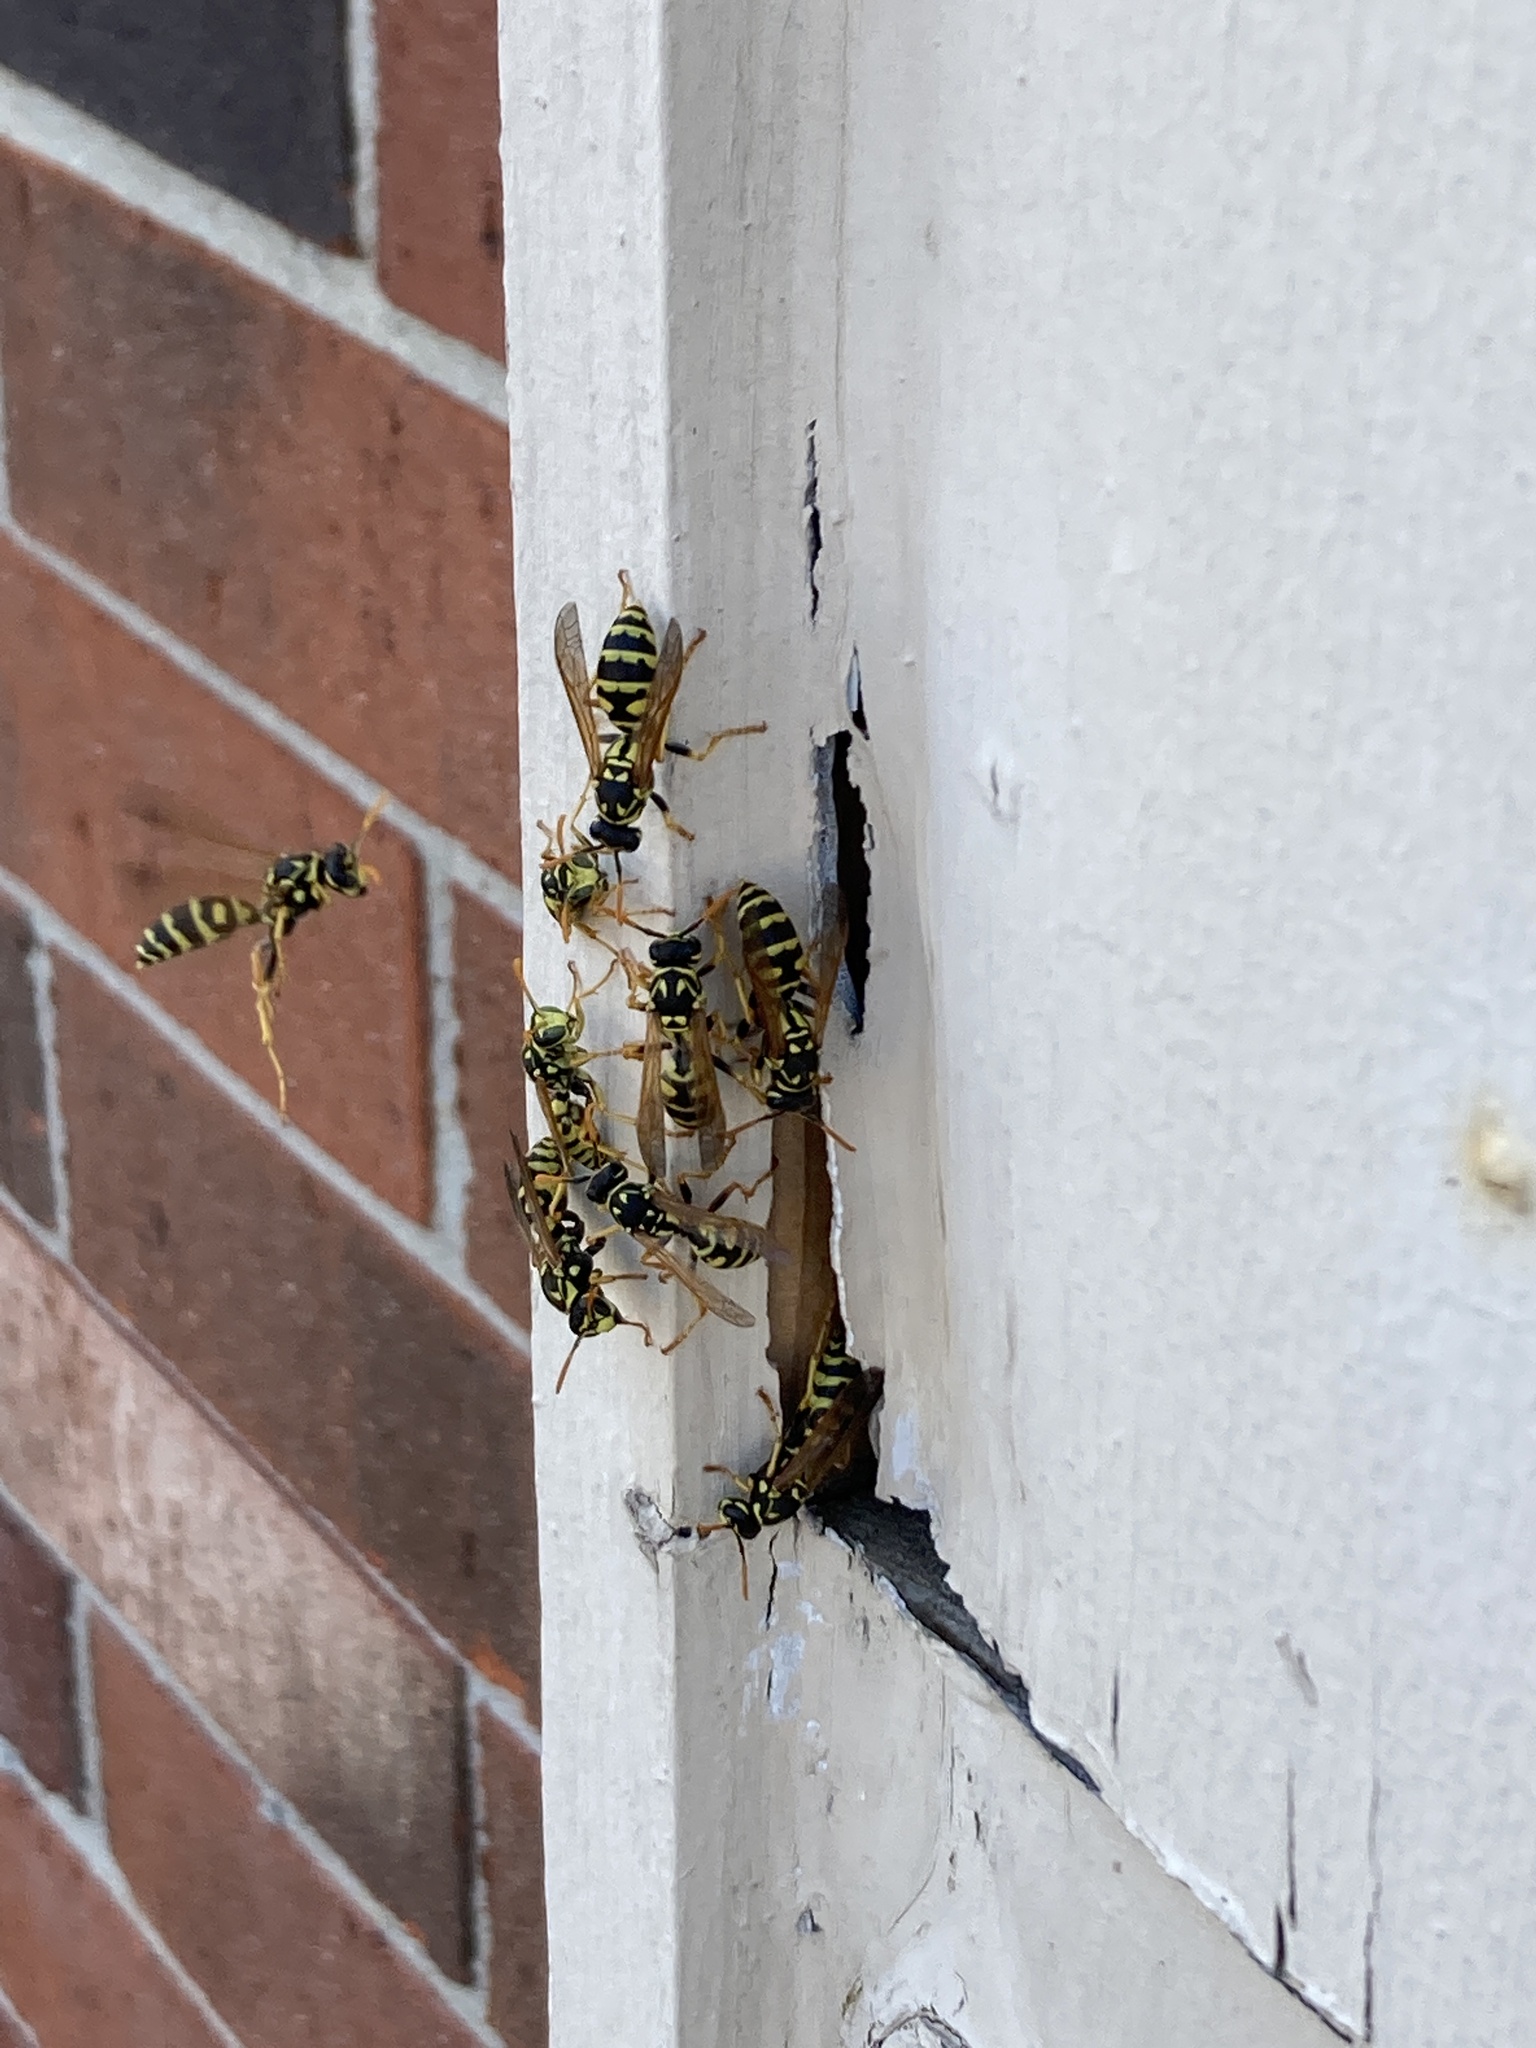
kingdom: Animalia
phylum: Arthropoda
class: Insecta
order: Hymenoptera
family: Eumenidae
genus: Polistes
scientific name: Polistes dominula
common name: Paper wasp
